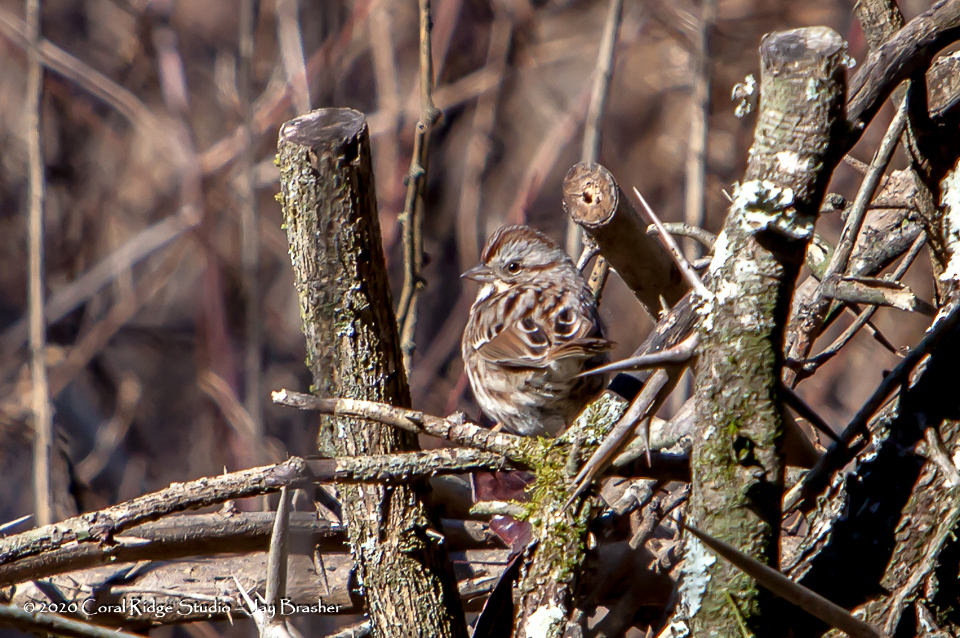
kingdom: Animalia
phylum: Chordata
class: Aves
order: Passeriformes
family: Passerellidae
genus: Melospiza
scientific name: Melospiza melodia
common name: Song sparrow
